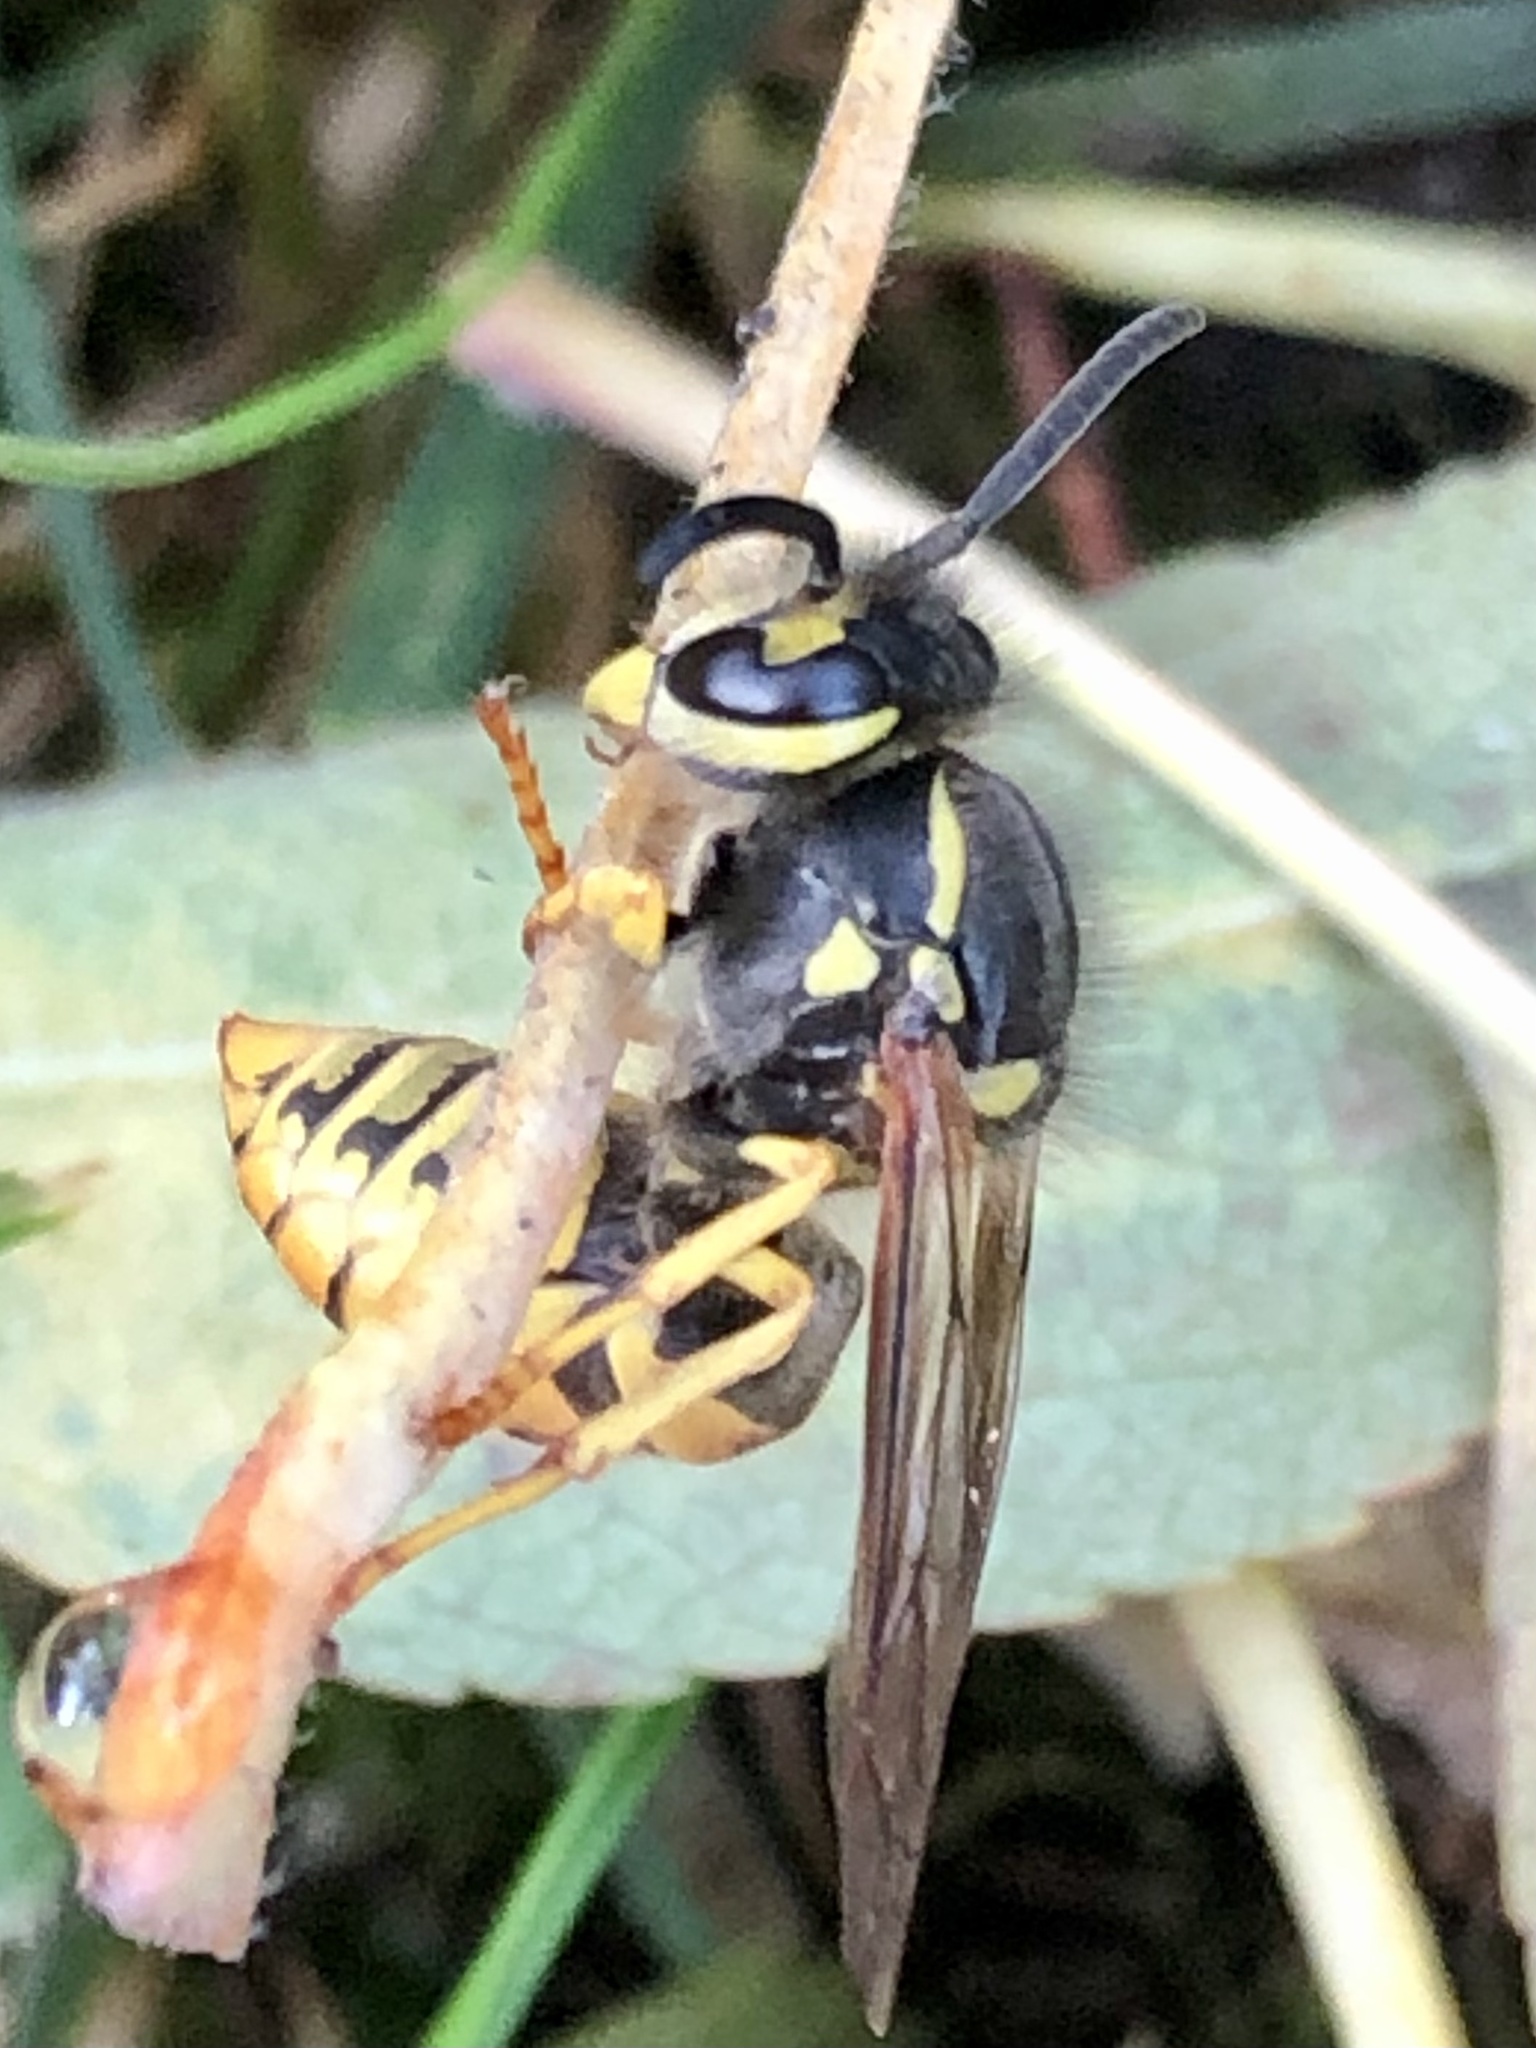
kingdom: Animalia
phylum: Arthropoda
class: Insecta
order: Hymenoptera
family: Vespidae
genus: Vespula
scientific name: Vespula germanica
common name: German wasp
